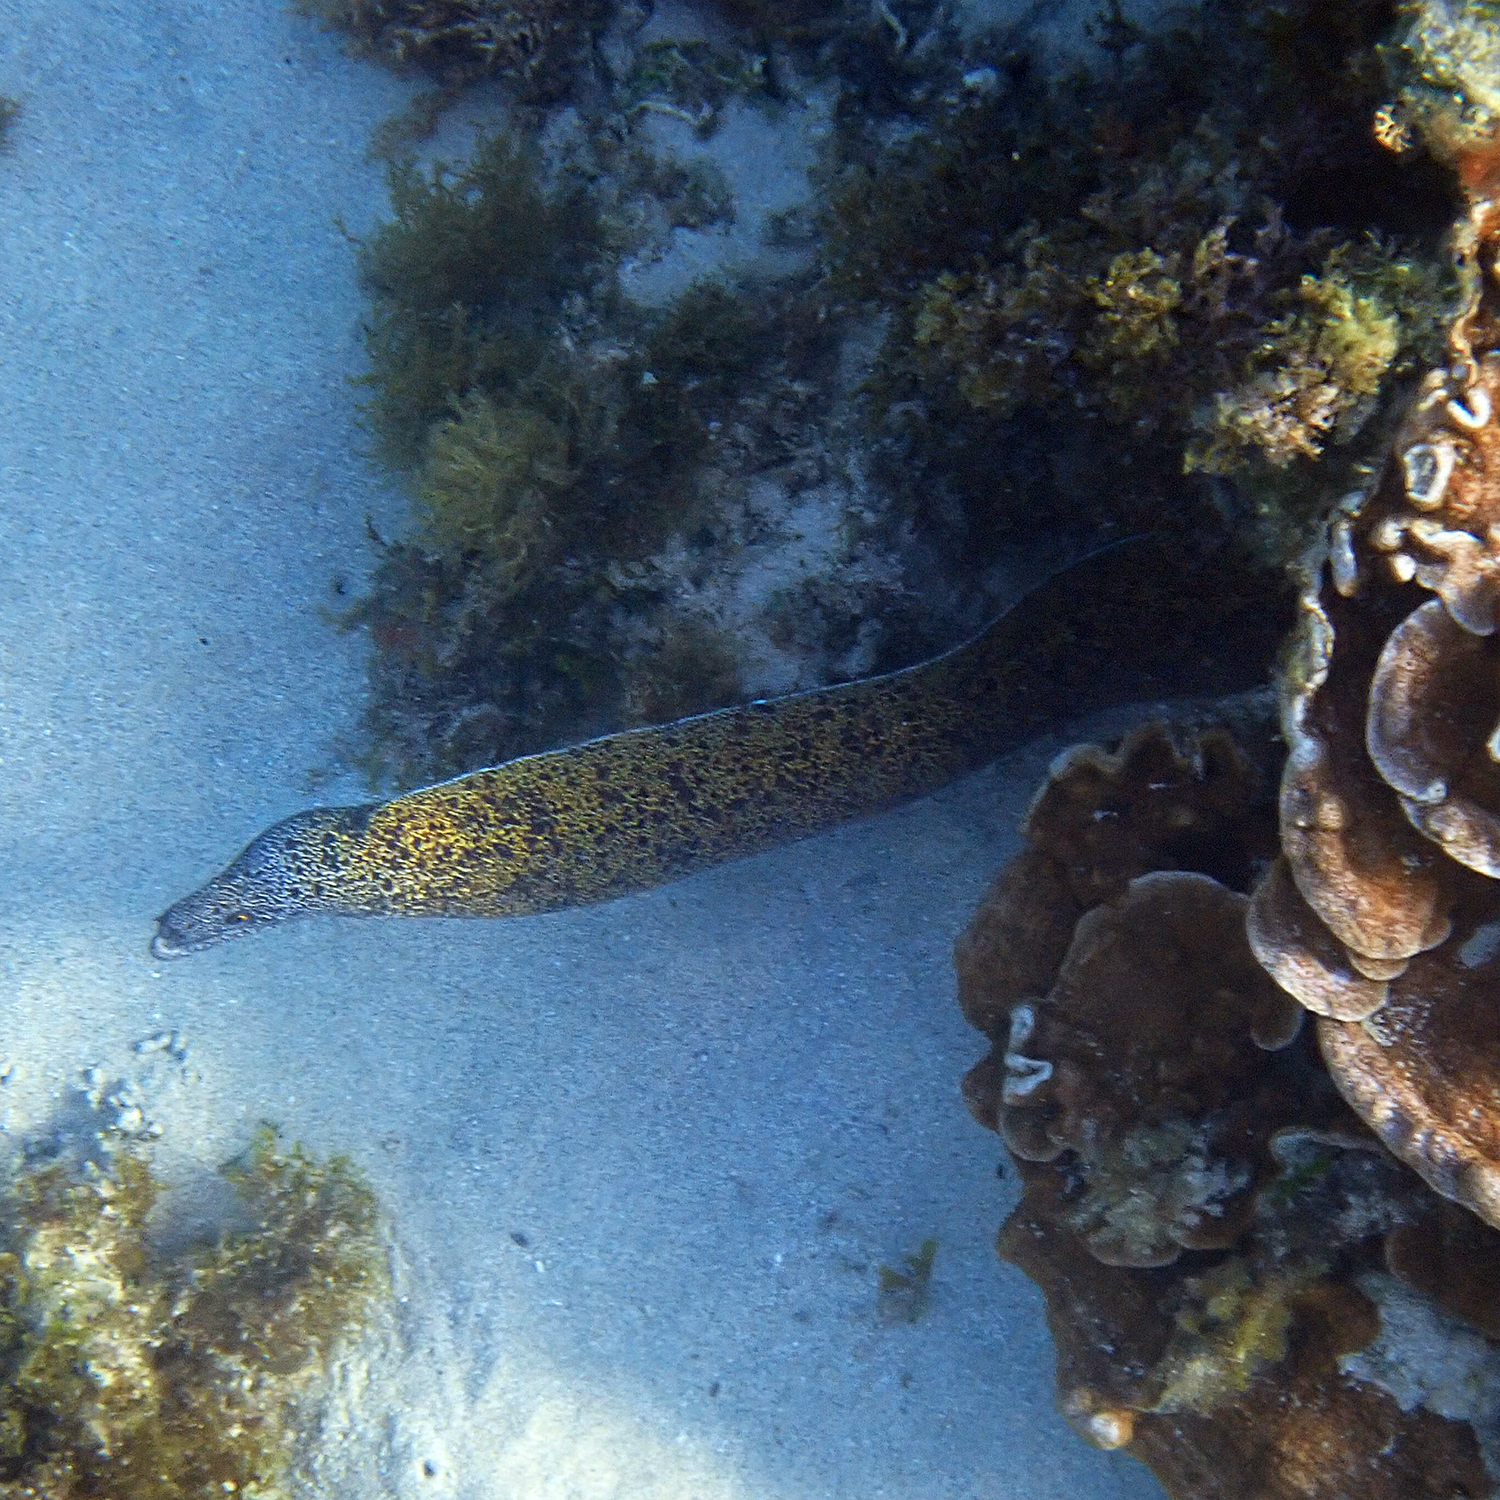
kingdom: Animalia
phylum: Chordata
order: Anguilliformes
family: Muraenidae
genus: Gymnothorax
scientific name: Gymnothorax annasona
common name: Lord howe island moray
